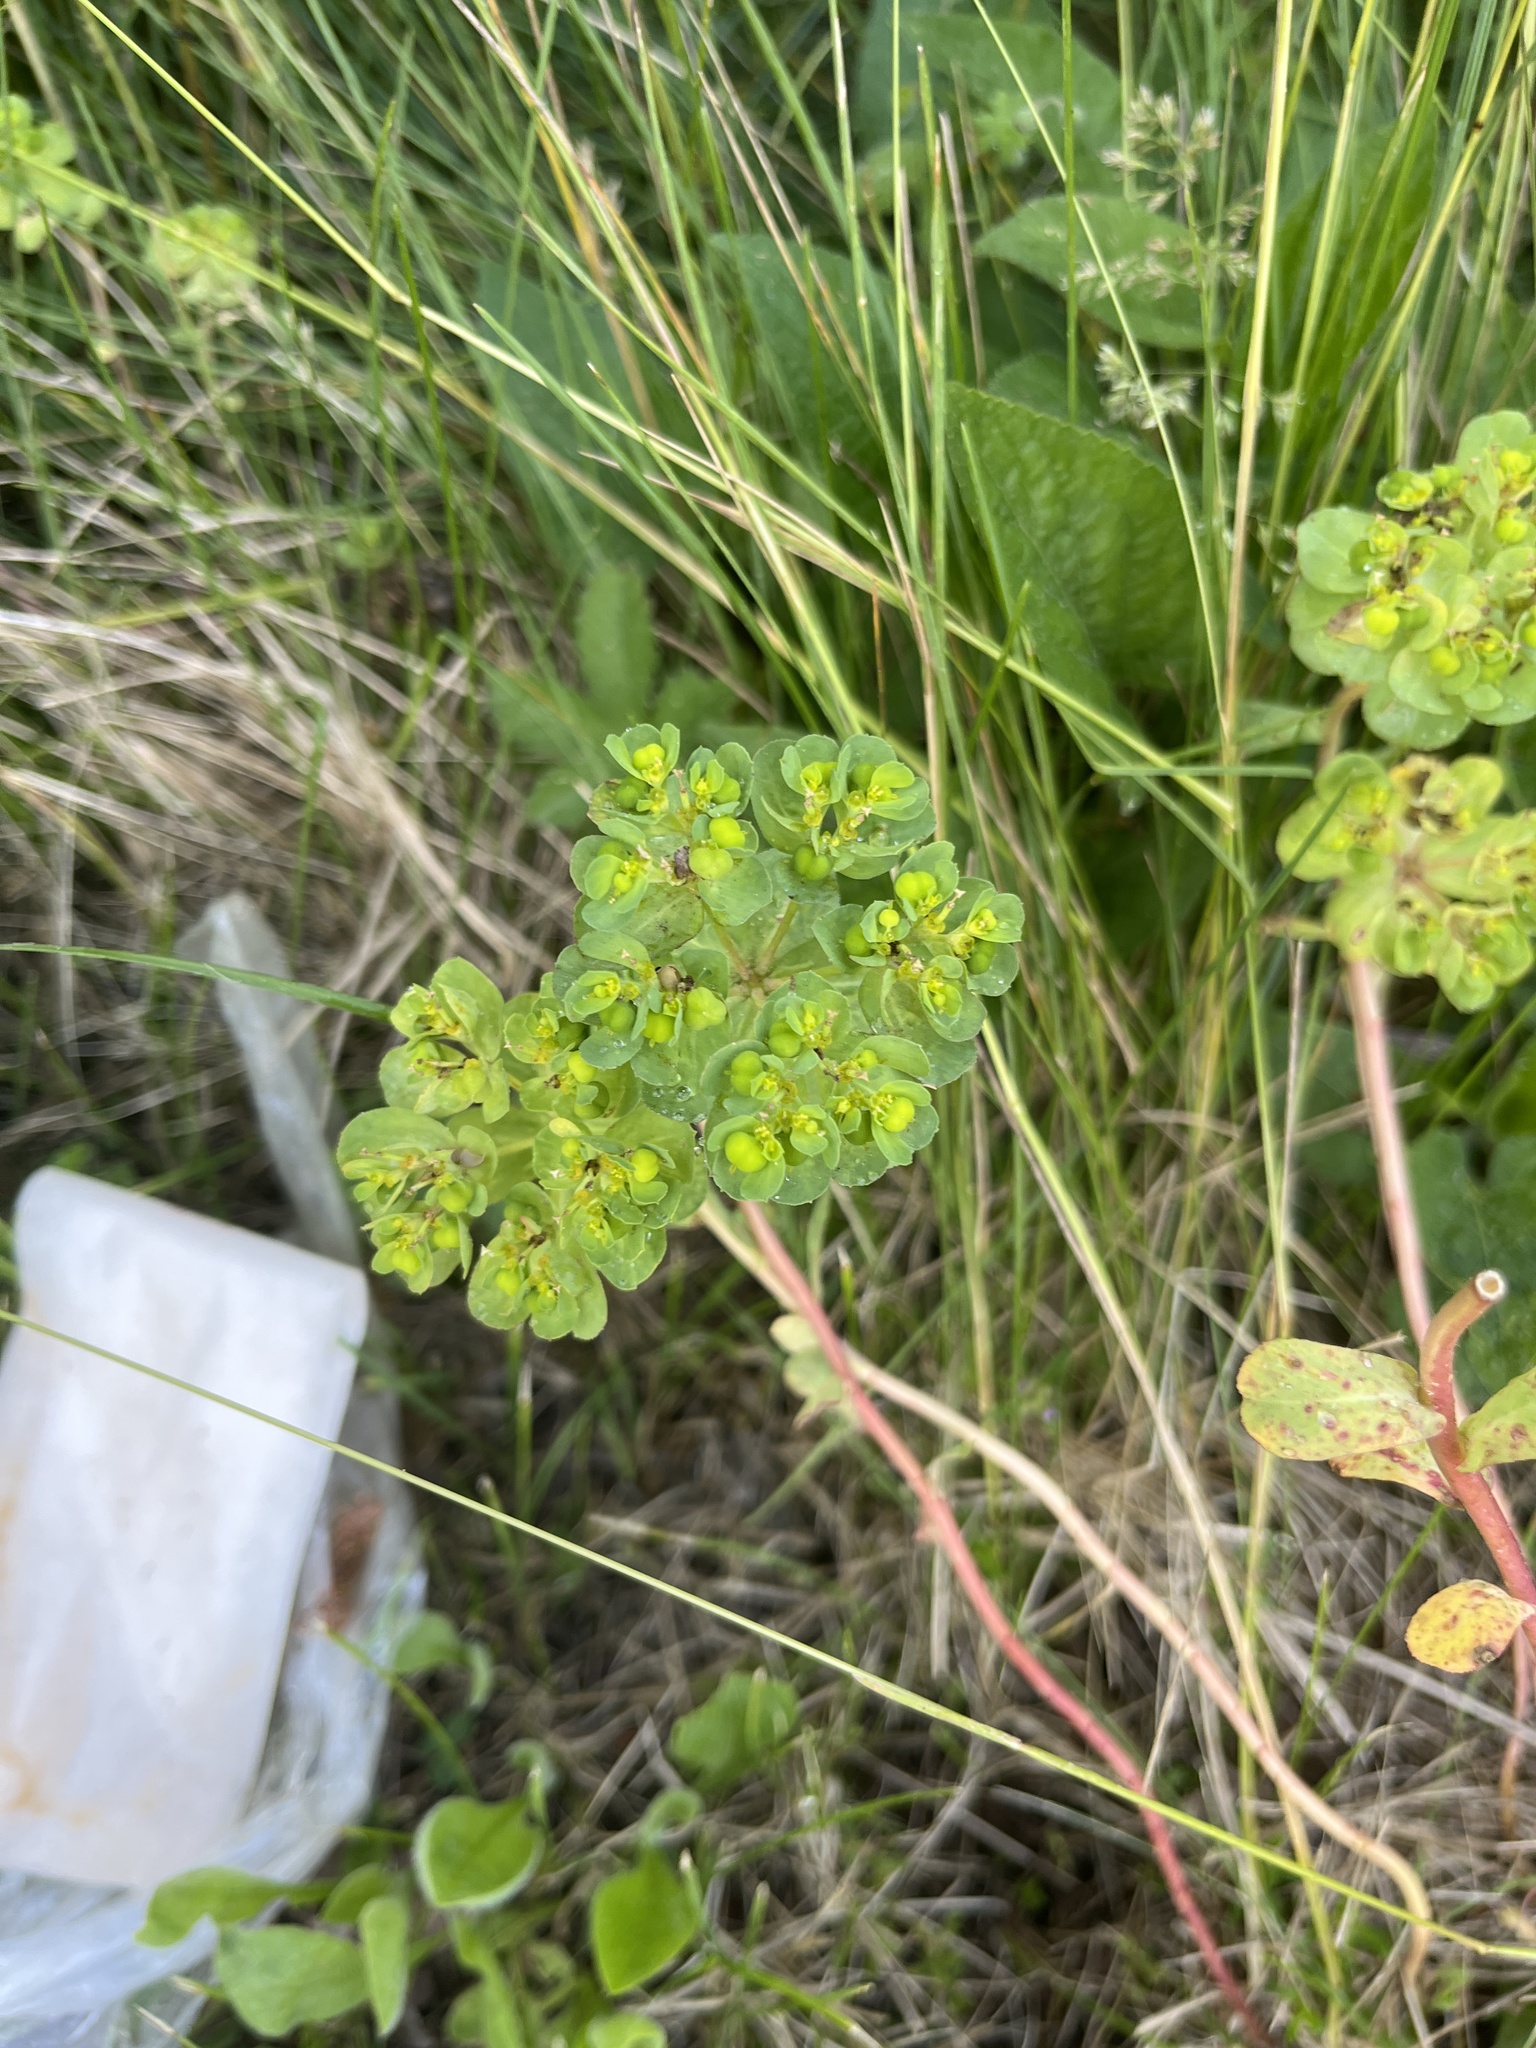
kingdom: Plantae
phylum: Tracheophyta
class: Magnoliopsida
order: Malpighiales
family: Euphorbiaceae
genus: Euphorbia
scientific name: Euphorbia helioscopia
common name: Sun spurge
